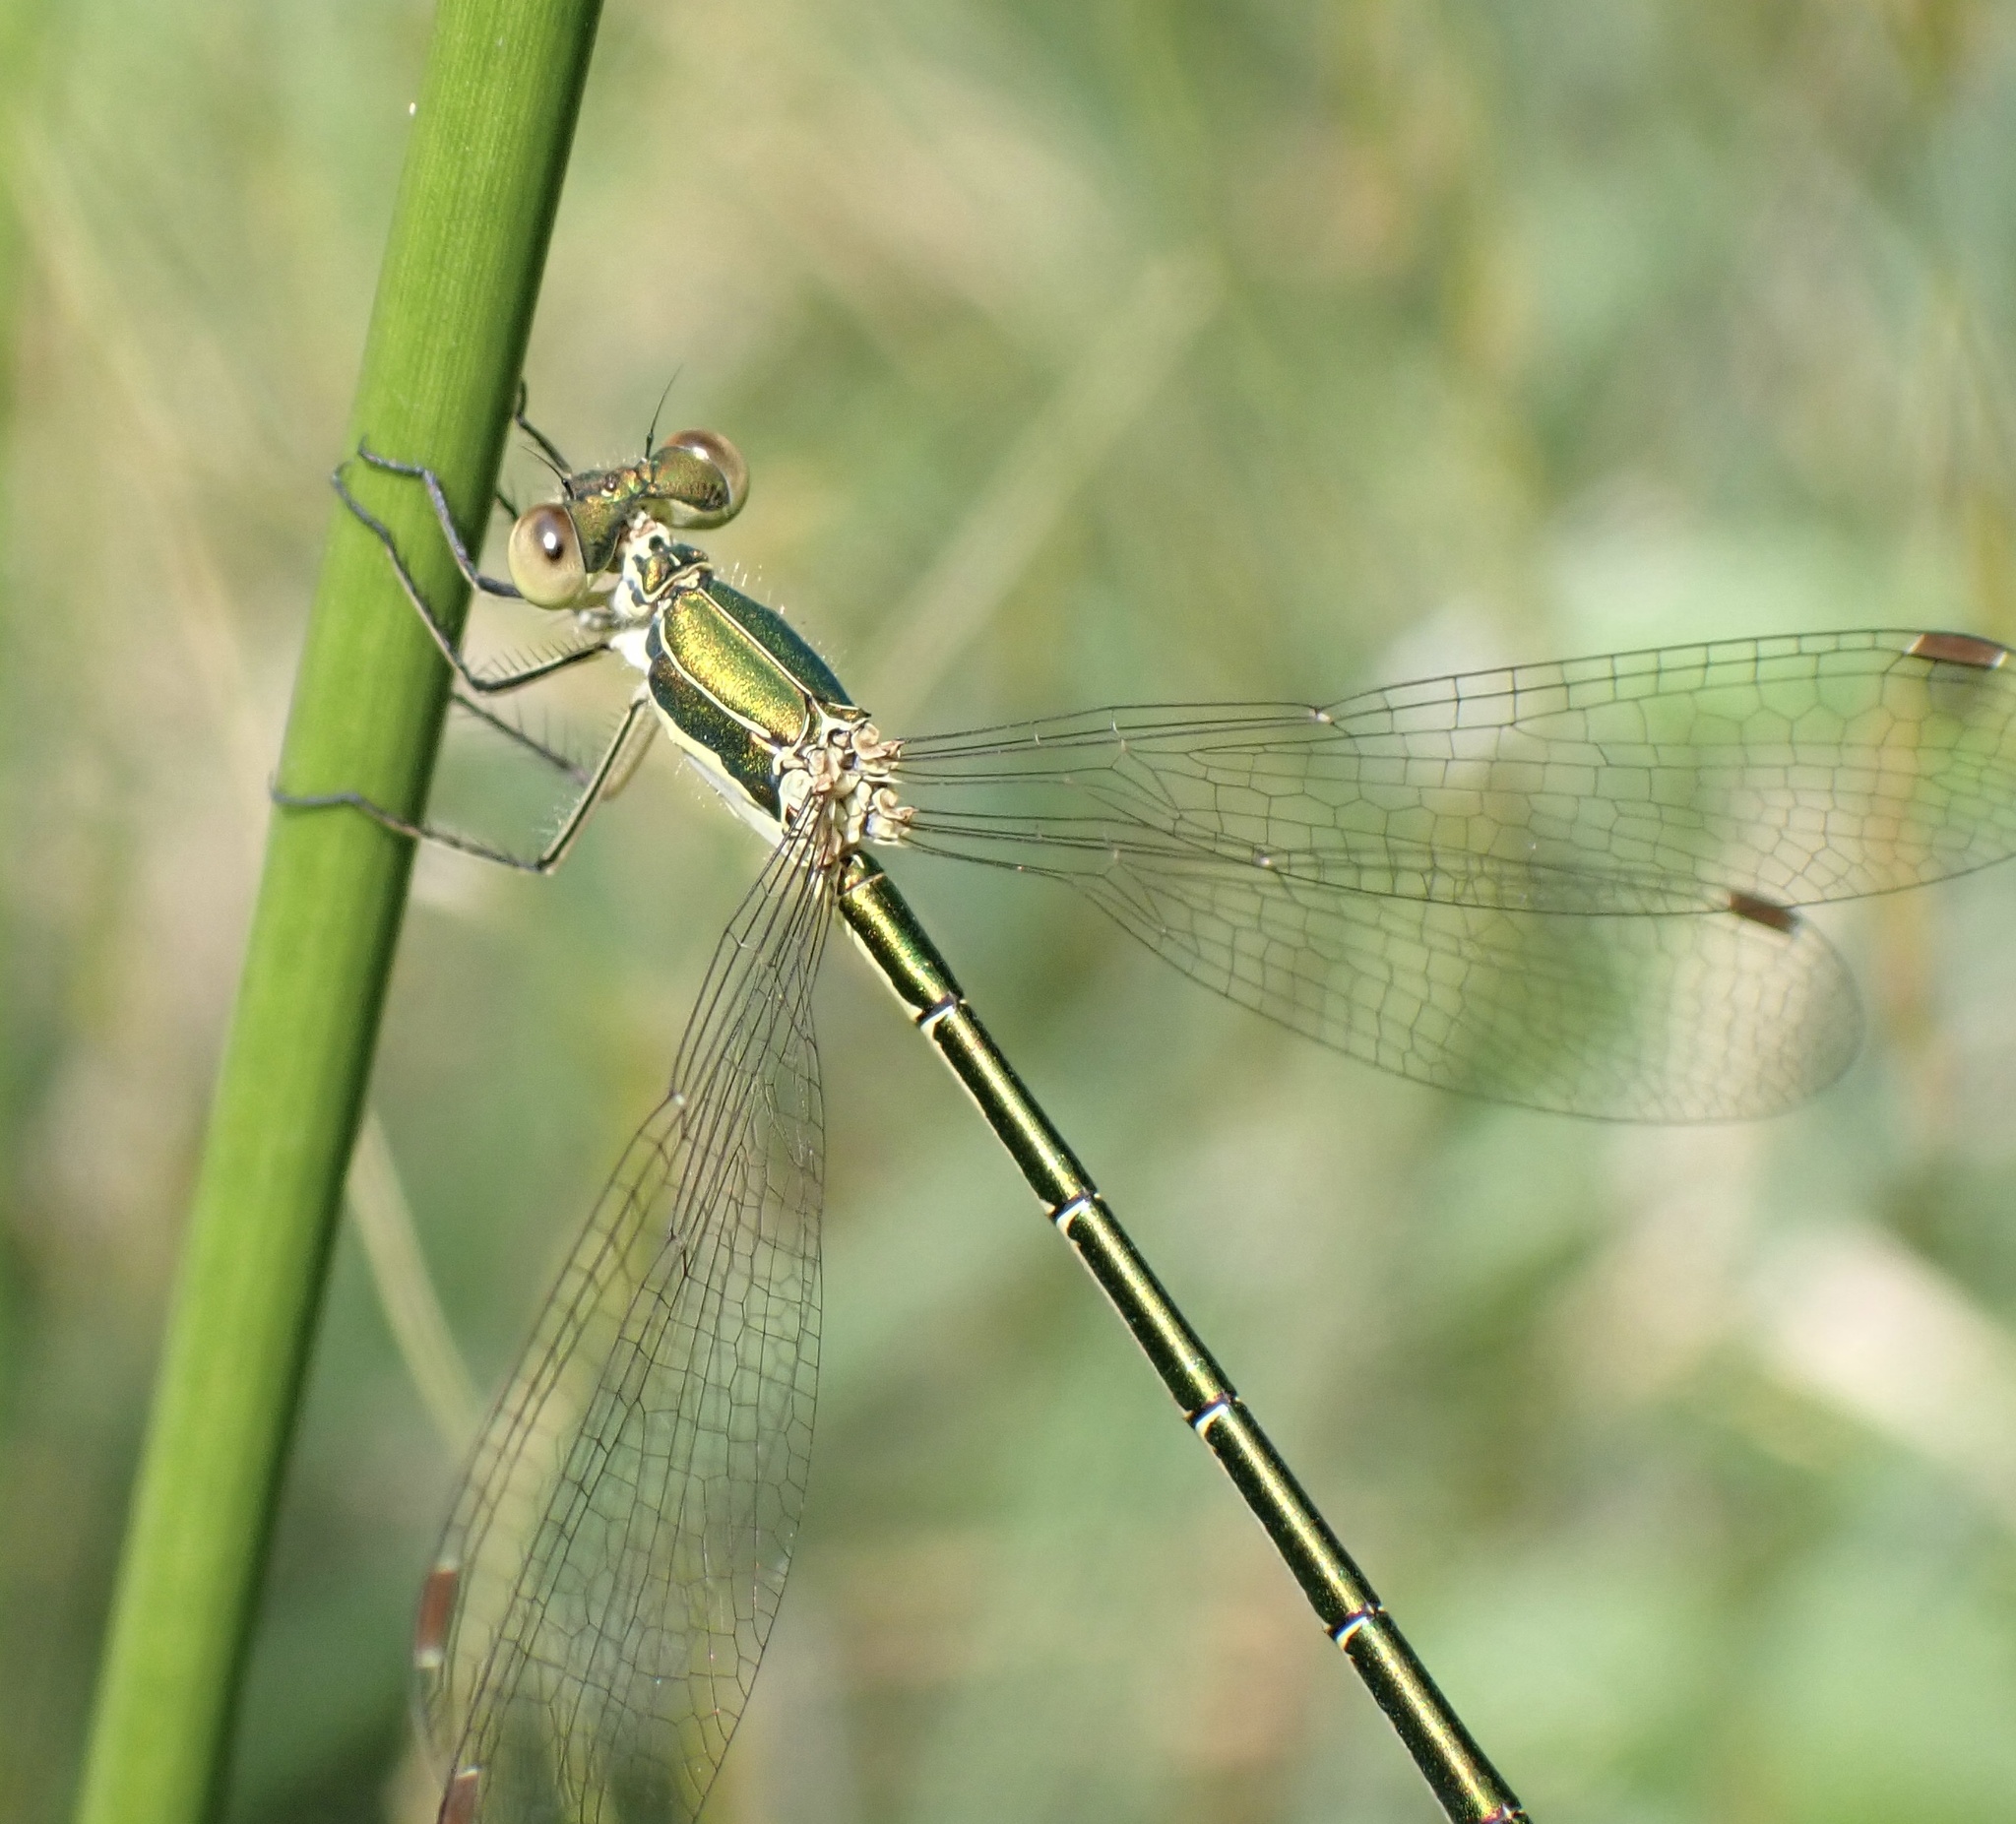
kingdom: Animalia
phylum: Arthropoda
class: Insecta
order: Odonata
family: Lestidae
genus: Lestes
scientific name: Lestes virens
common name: Small emerald spreadwing
